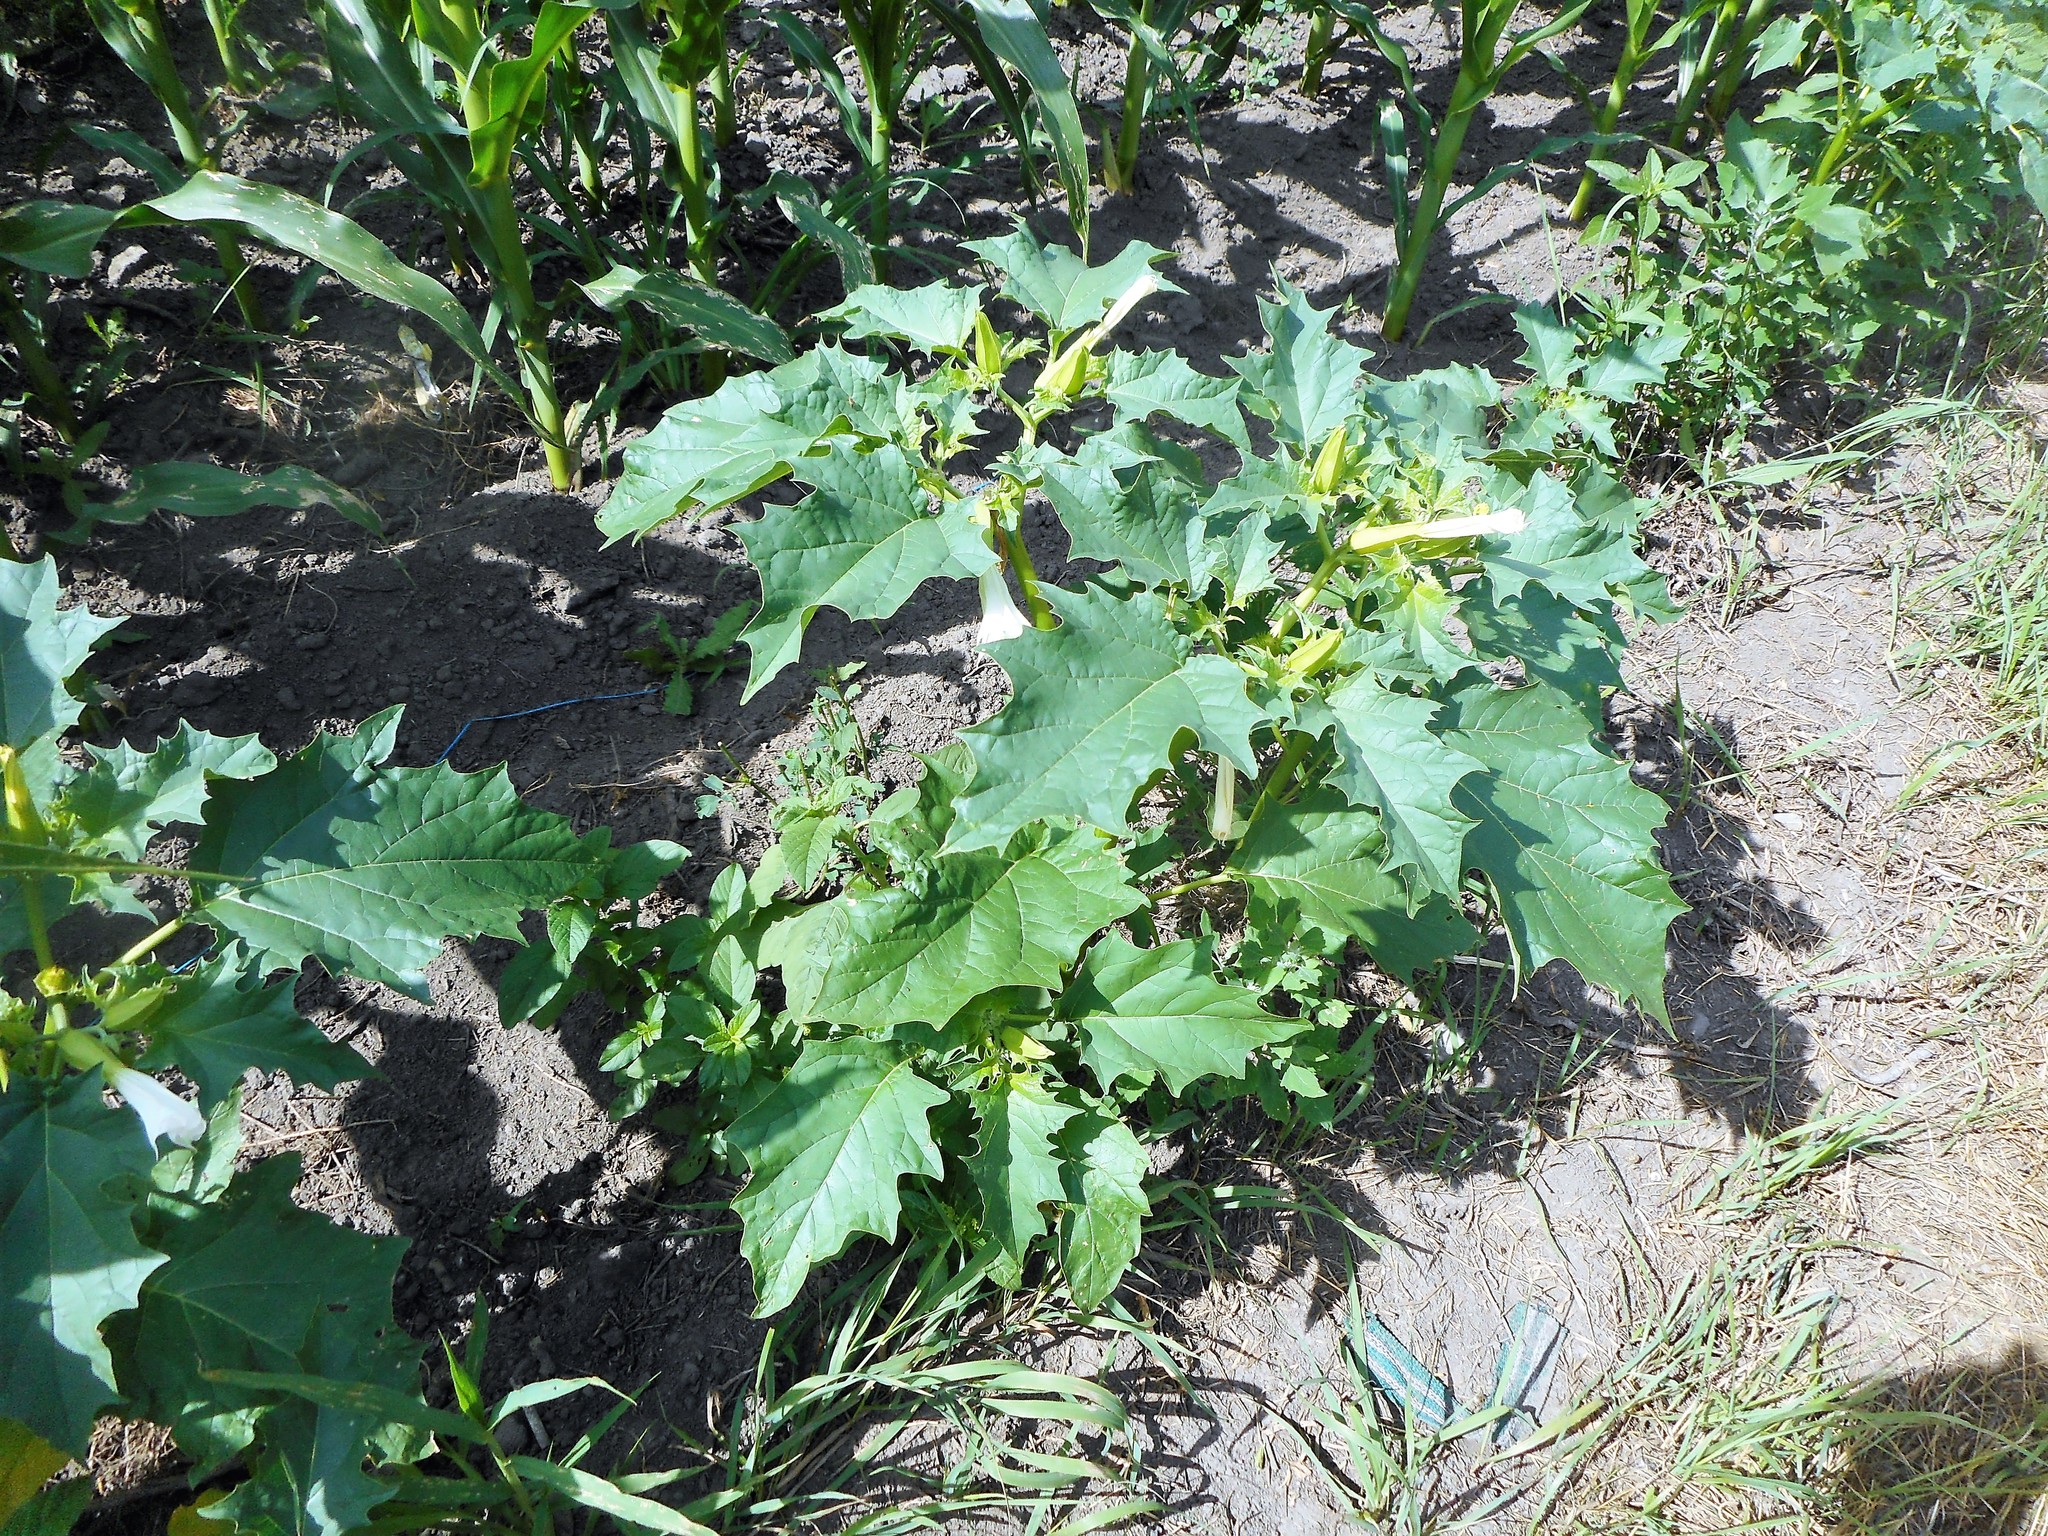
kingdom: Plantae
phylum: Tracheophyta
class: Magnoliopsida
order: Solanales
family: Solanaceae
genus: Datura
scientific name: Datura stramonium
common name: Thorn-apple
